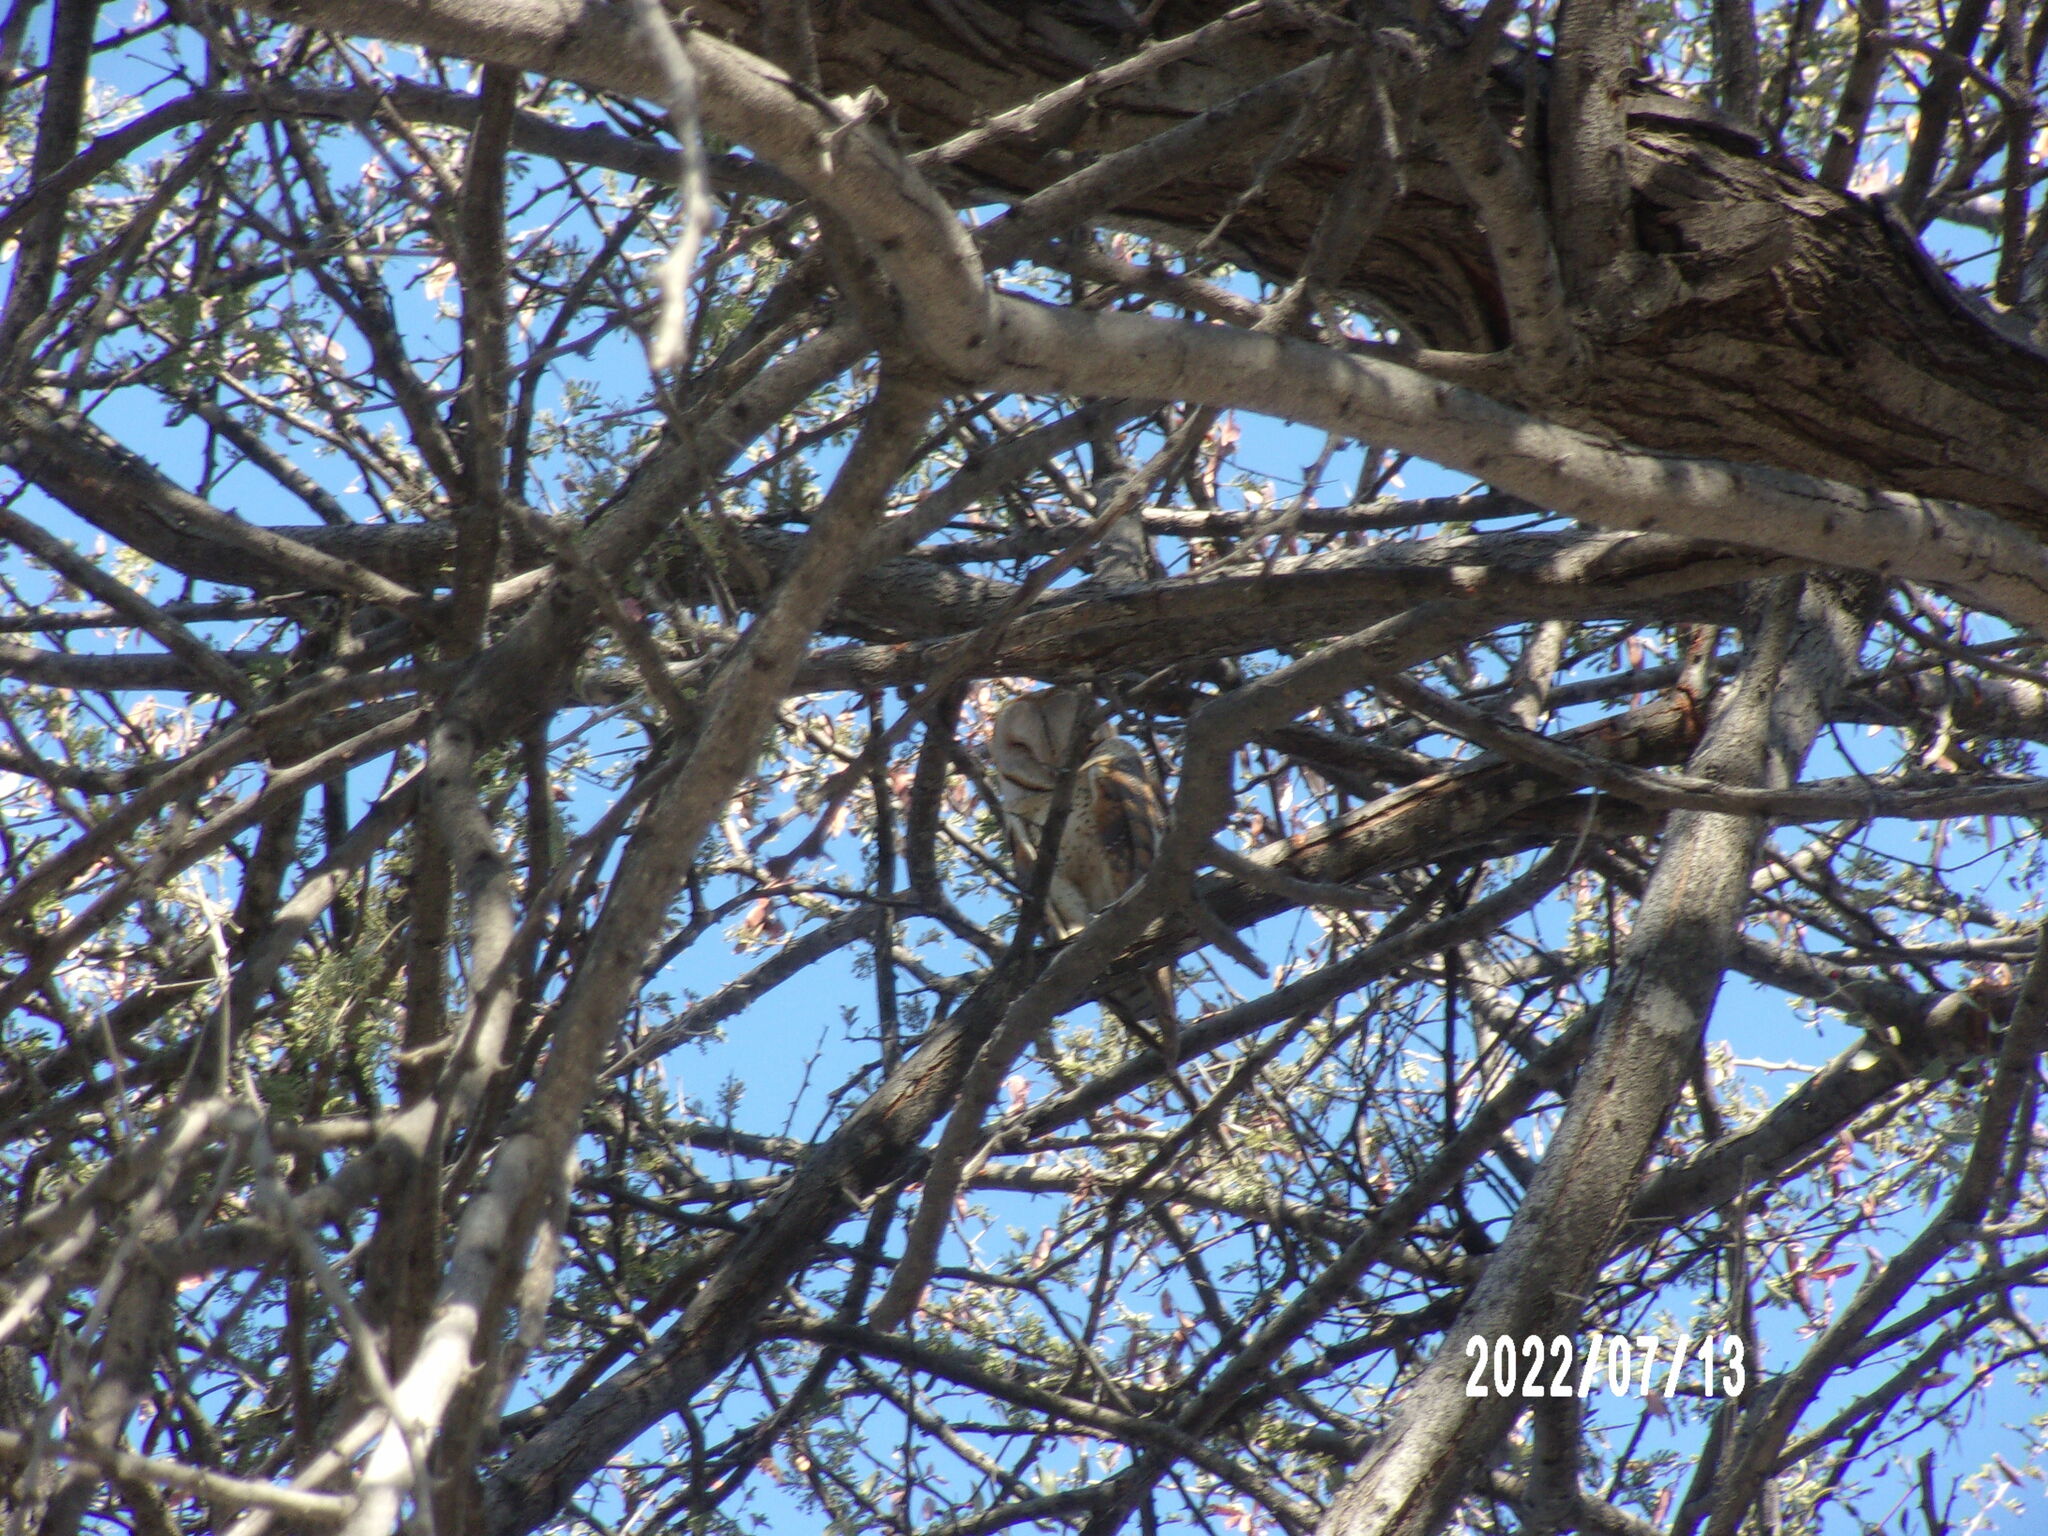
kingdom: Animalia
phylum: Chordata
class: Aves
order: Strigiformes
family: Tytonidae
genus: Tyto
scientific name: Tyto alba
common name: Barn owl
